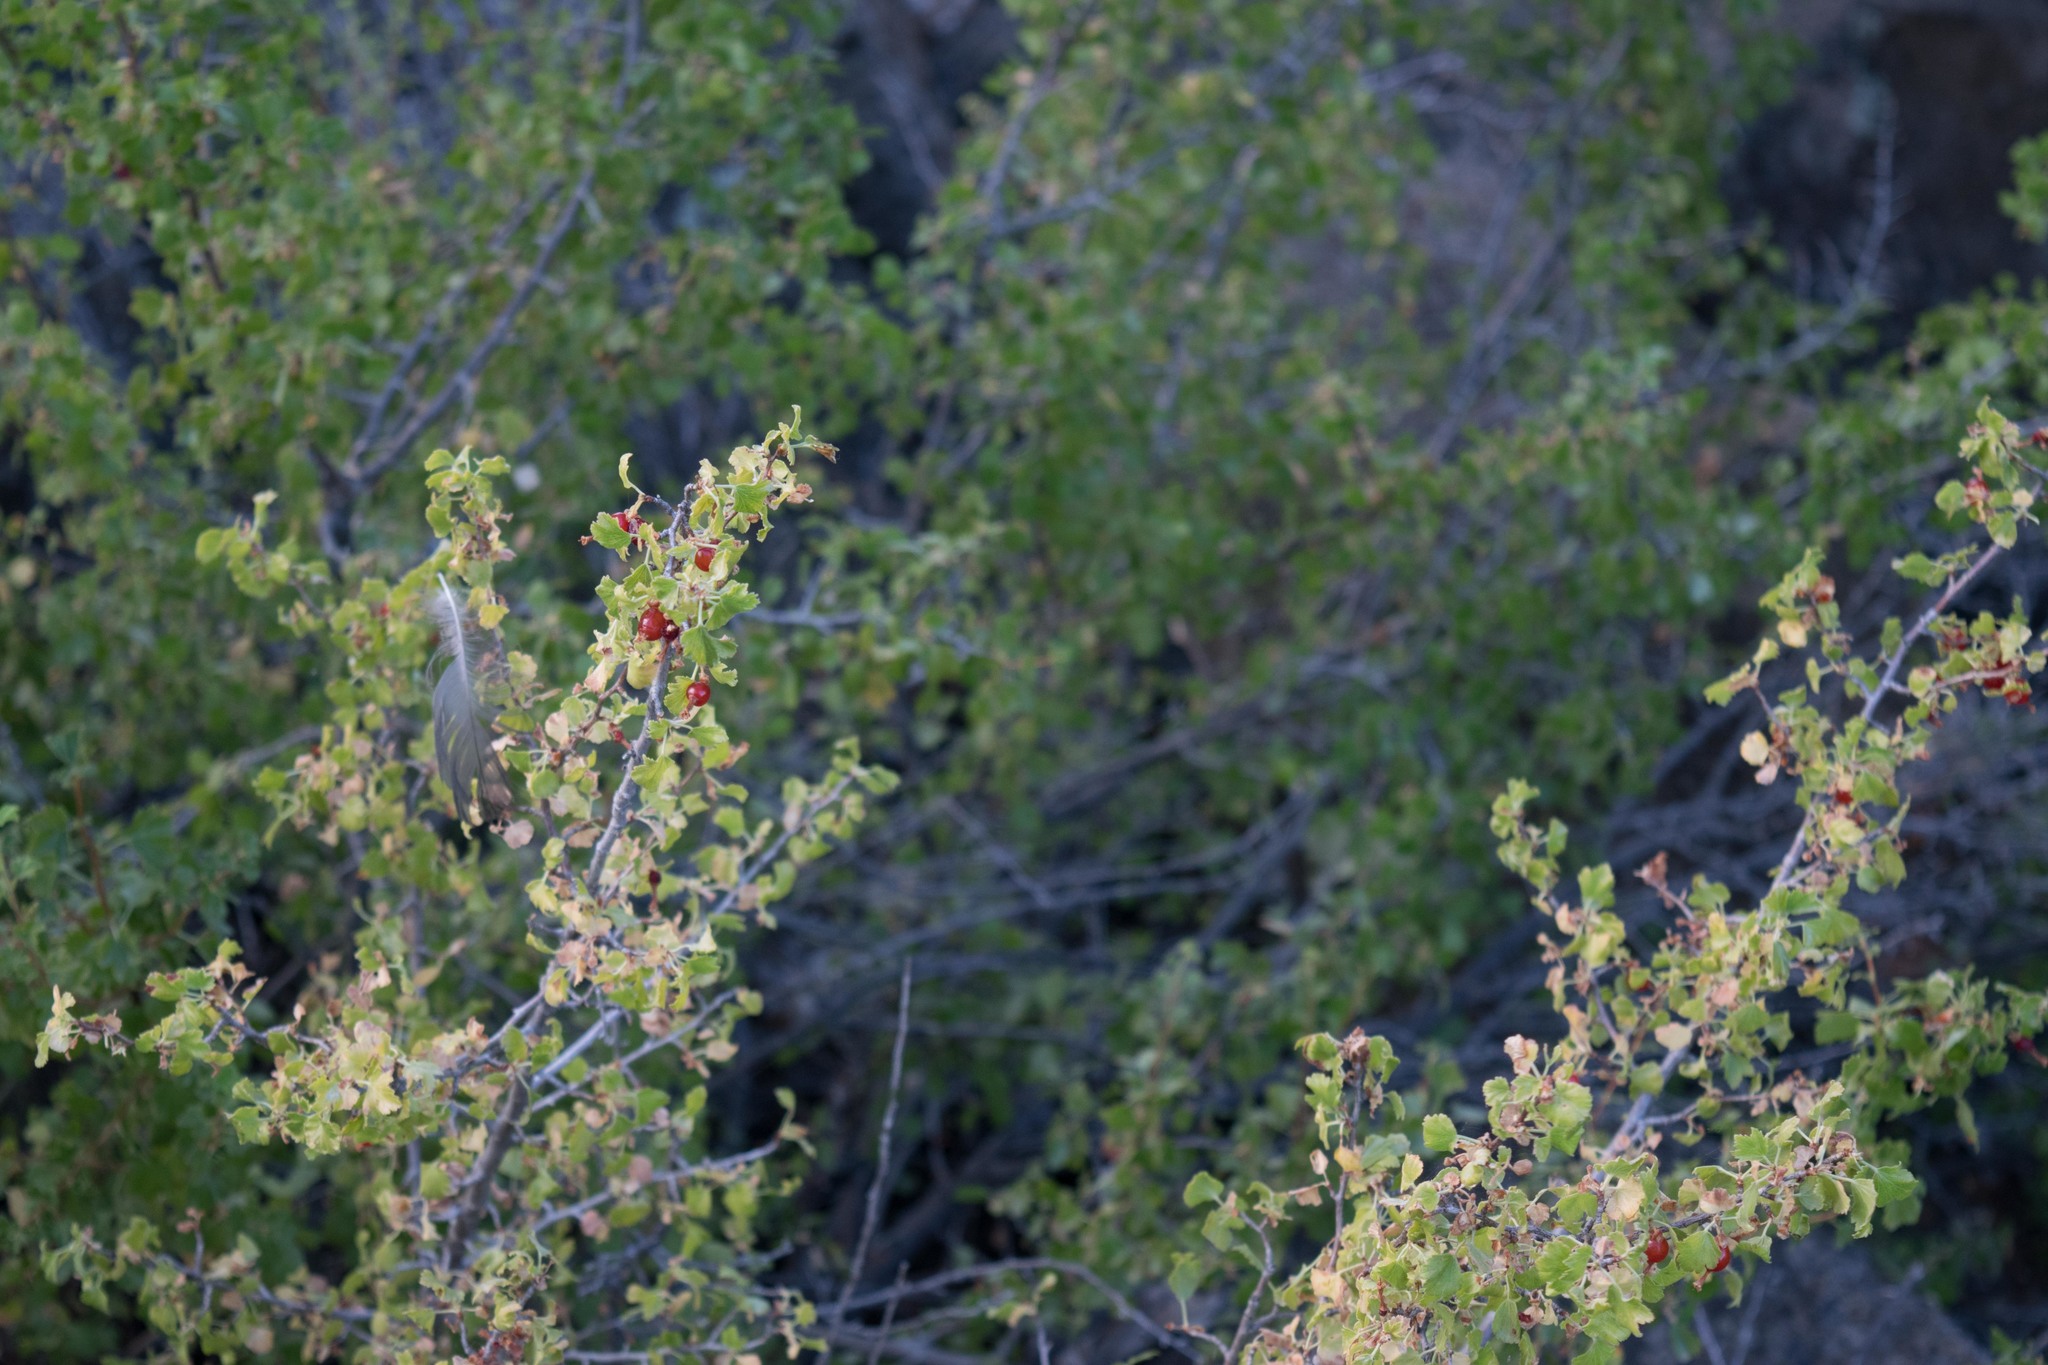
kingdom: Plantae
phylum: Tracheophyta
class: Magnoliopsida
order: Saxifragales
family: Grossulariaceae
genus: Ribes
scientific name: Ribes cereum
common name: Wax currant
